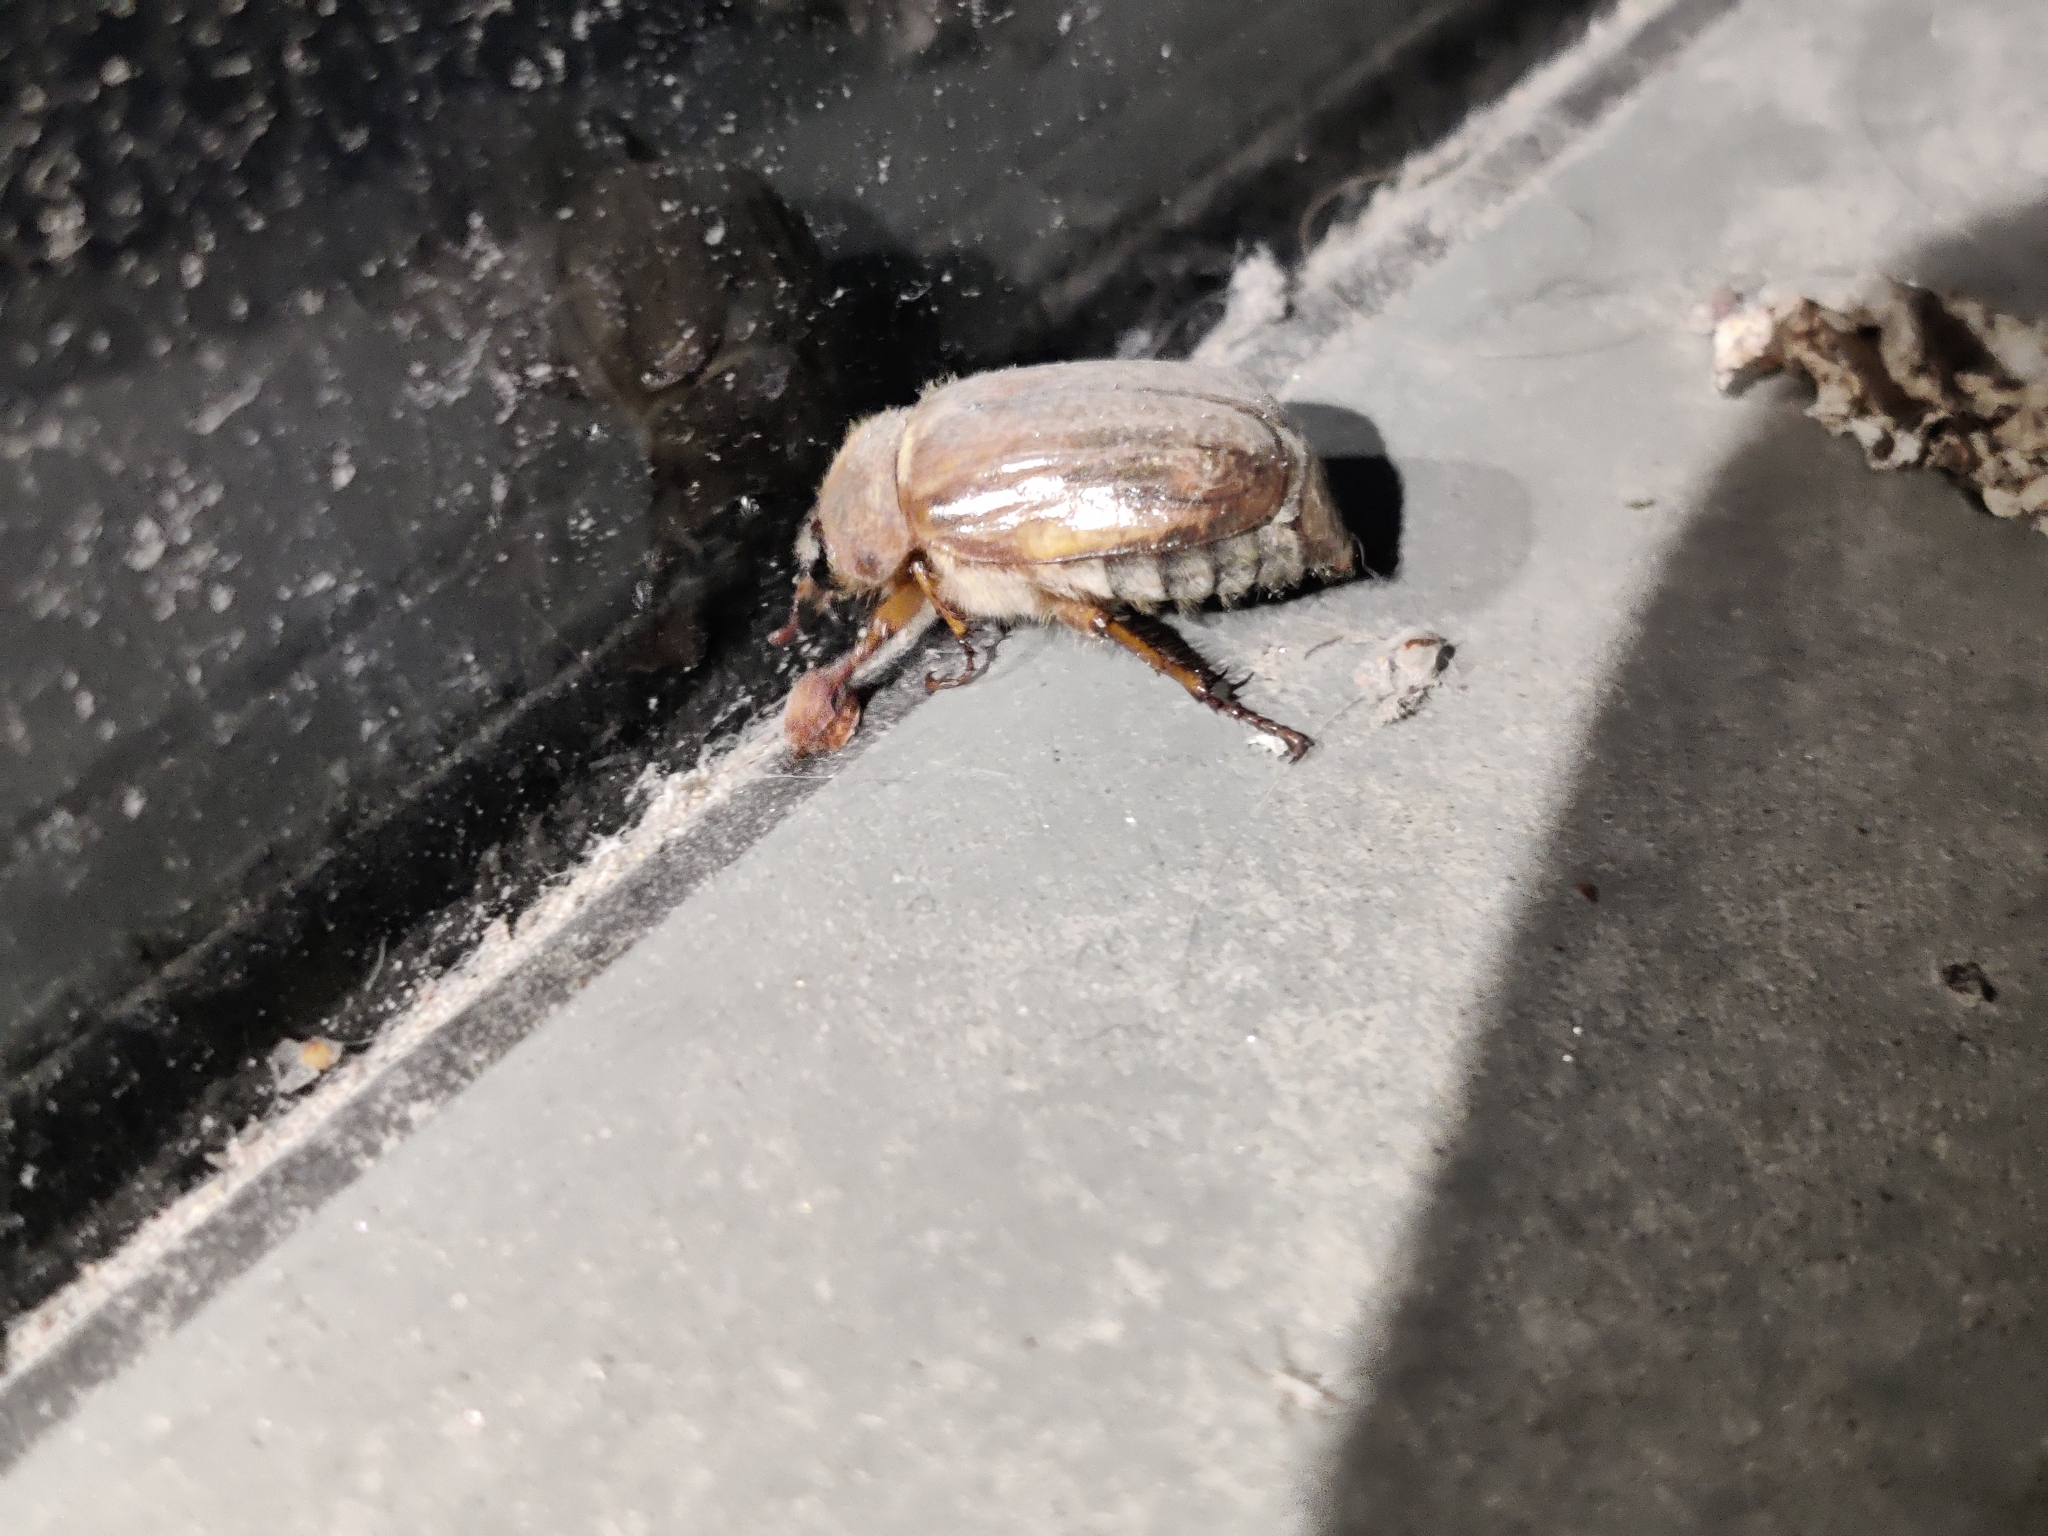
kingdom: Animalia
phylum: Arthropoda
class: Insecta
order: Coleoptera
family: Scarabaeidae
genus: Amphimallon
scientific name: Amphimallon solstitiale
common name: Summer chafer
